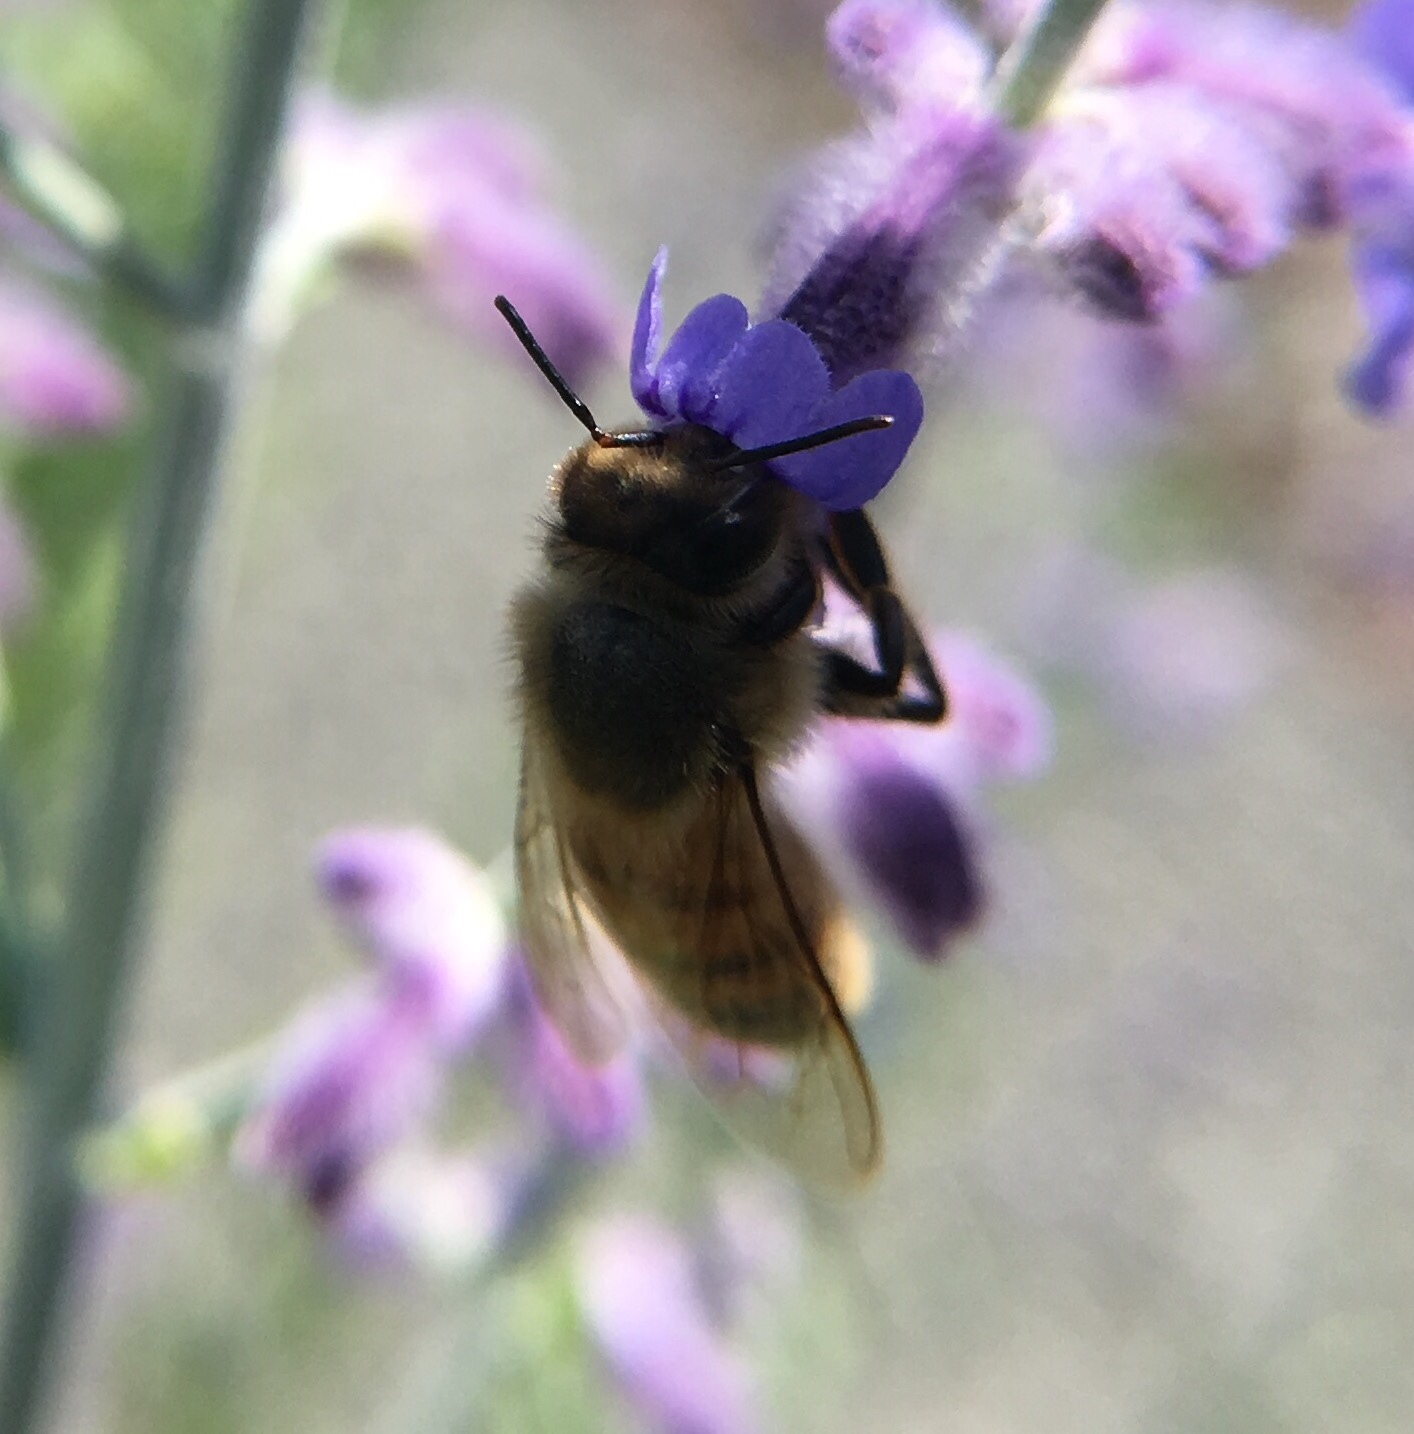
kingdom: Animalia
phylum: Arthropoda
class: Insecta
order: Hymenoptera
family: Apidae
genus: Apis
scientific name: Apis mellifera
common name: Honey bee
